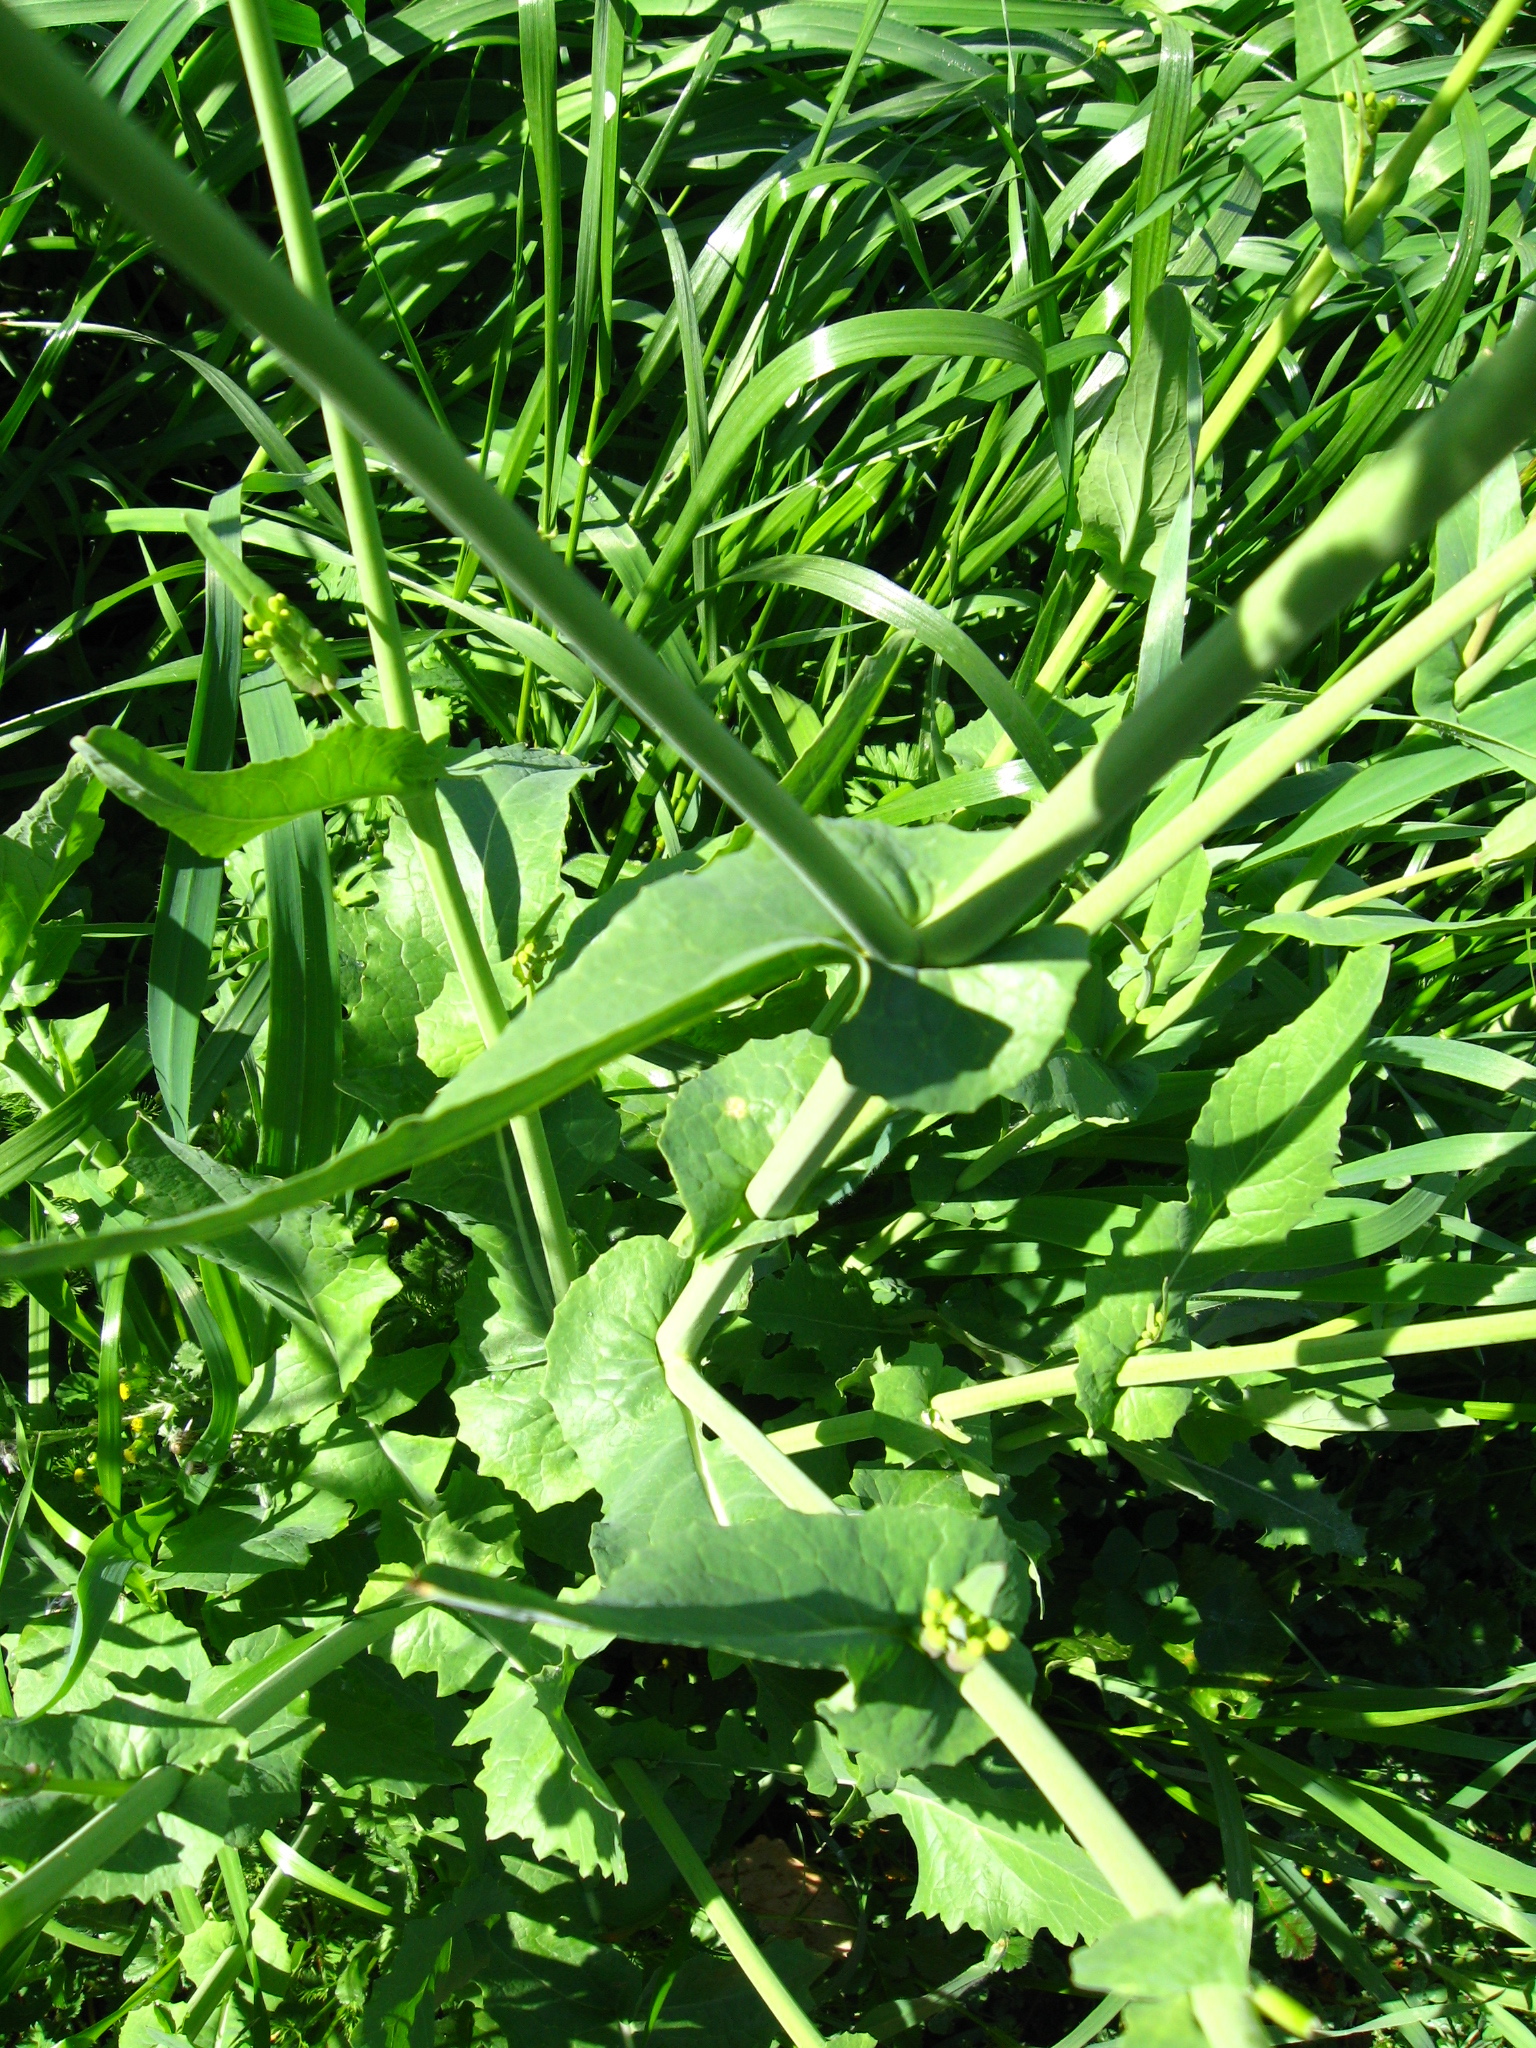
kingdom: Plantae
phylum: Tracheophyta
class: Magnoliopsida
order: Brassicales
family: Brassicaceae
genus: Brassica
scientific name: Brassica rapa
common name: Field mustard
